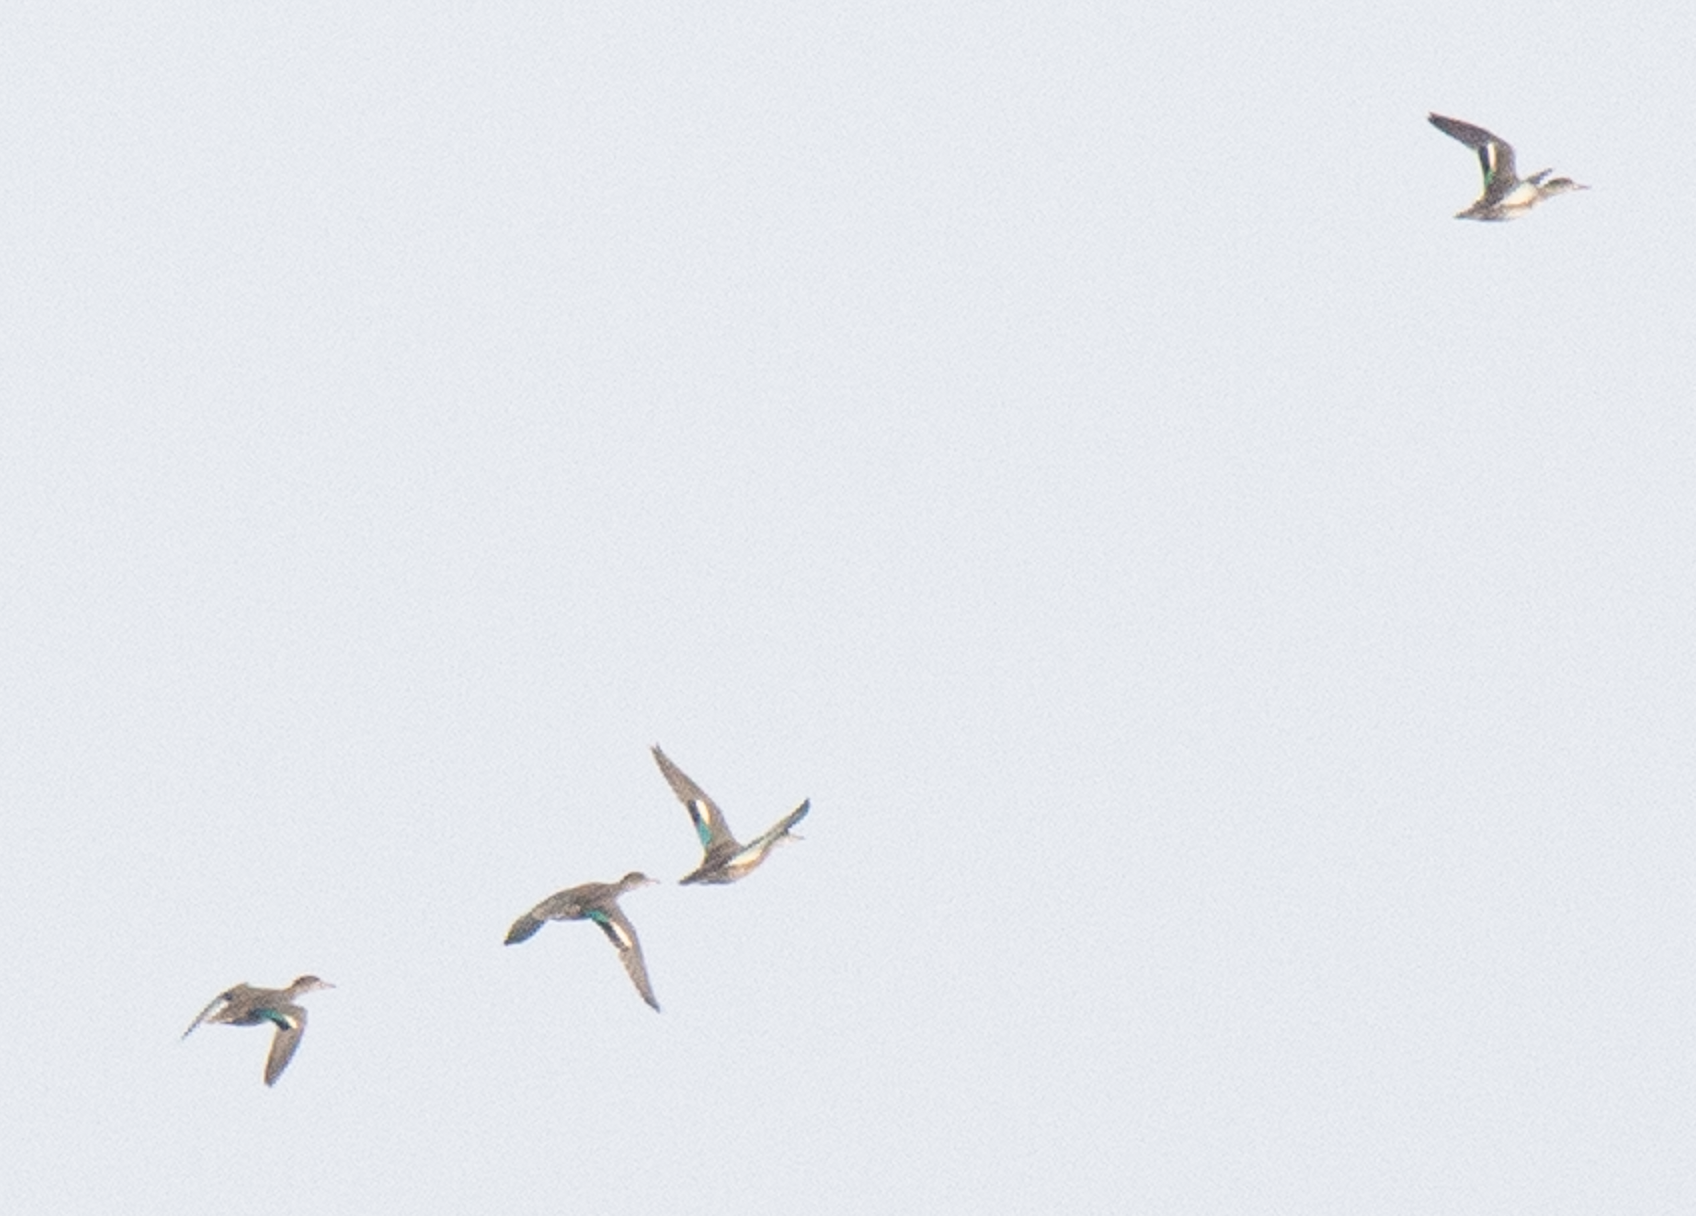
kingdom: Animalia
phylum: Chordata
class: Aves
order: Anseriformes
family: Anatidae
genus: Anas
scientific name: Anas crecca
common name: Eurasian teal
